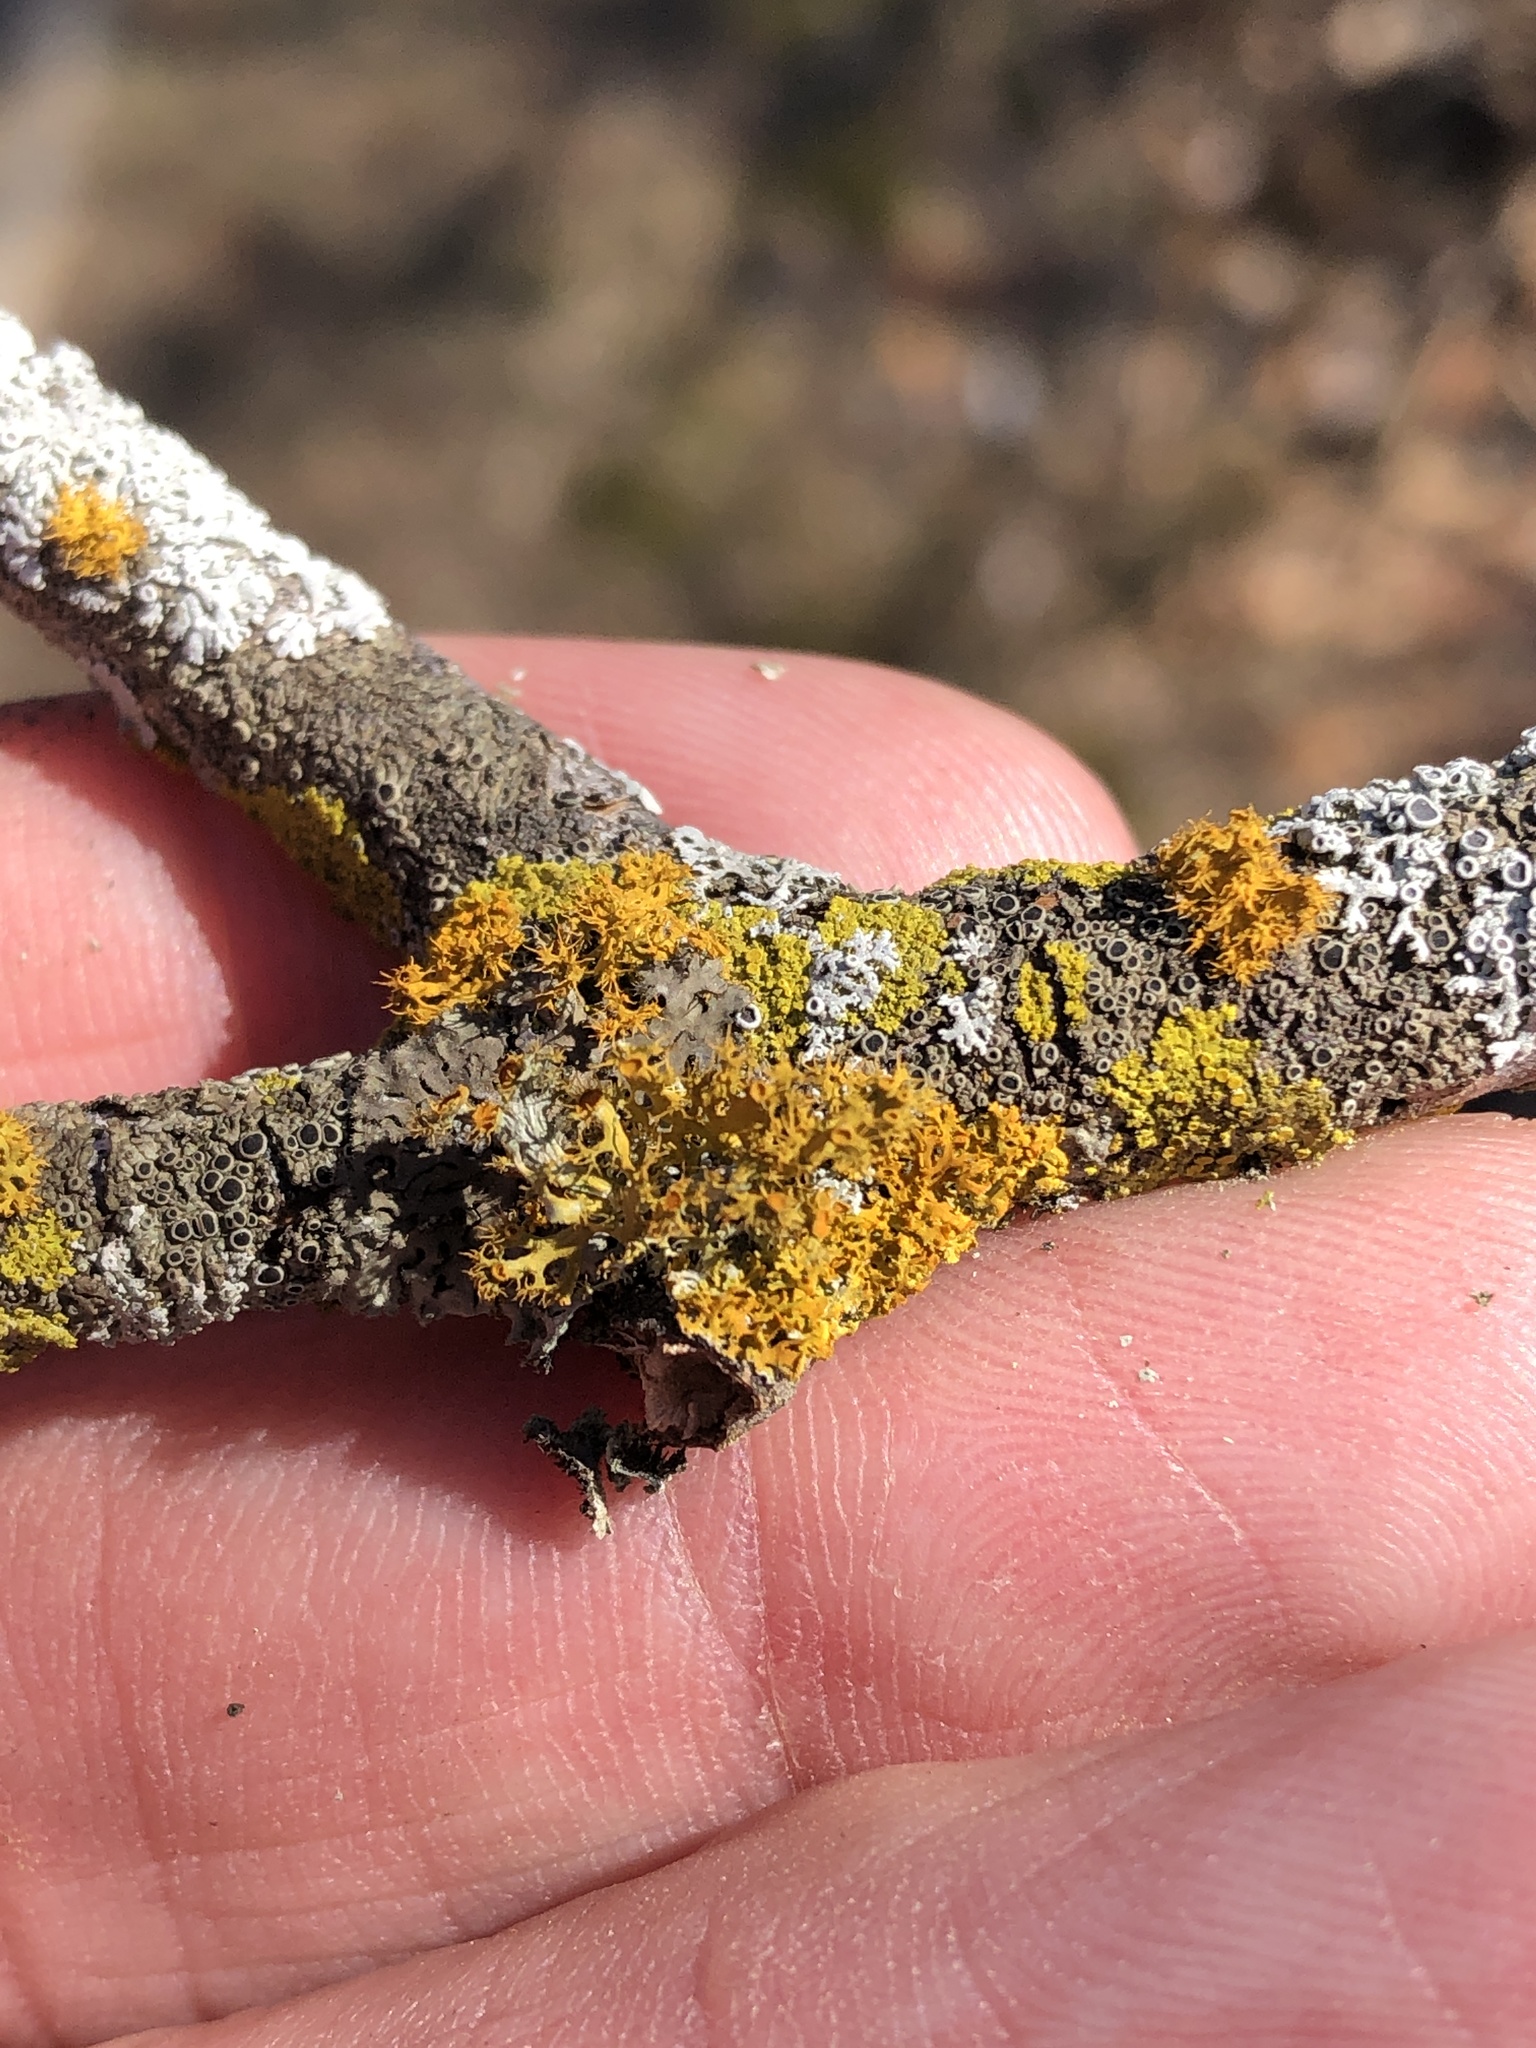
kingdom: Fungi
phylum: Ascomycota
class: Lecanoromycetes
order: Teloschistales
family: Teloschistaceae
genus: Niorma
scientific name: Niorma chrysophthalma
